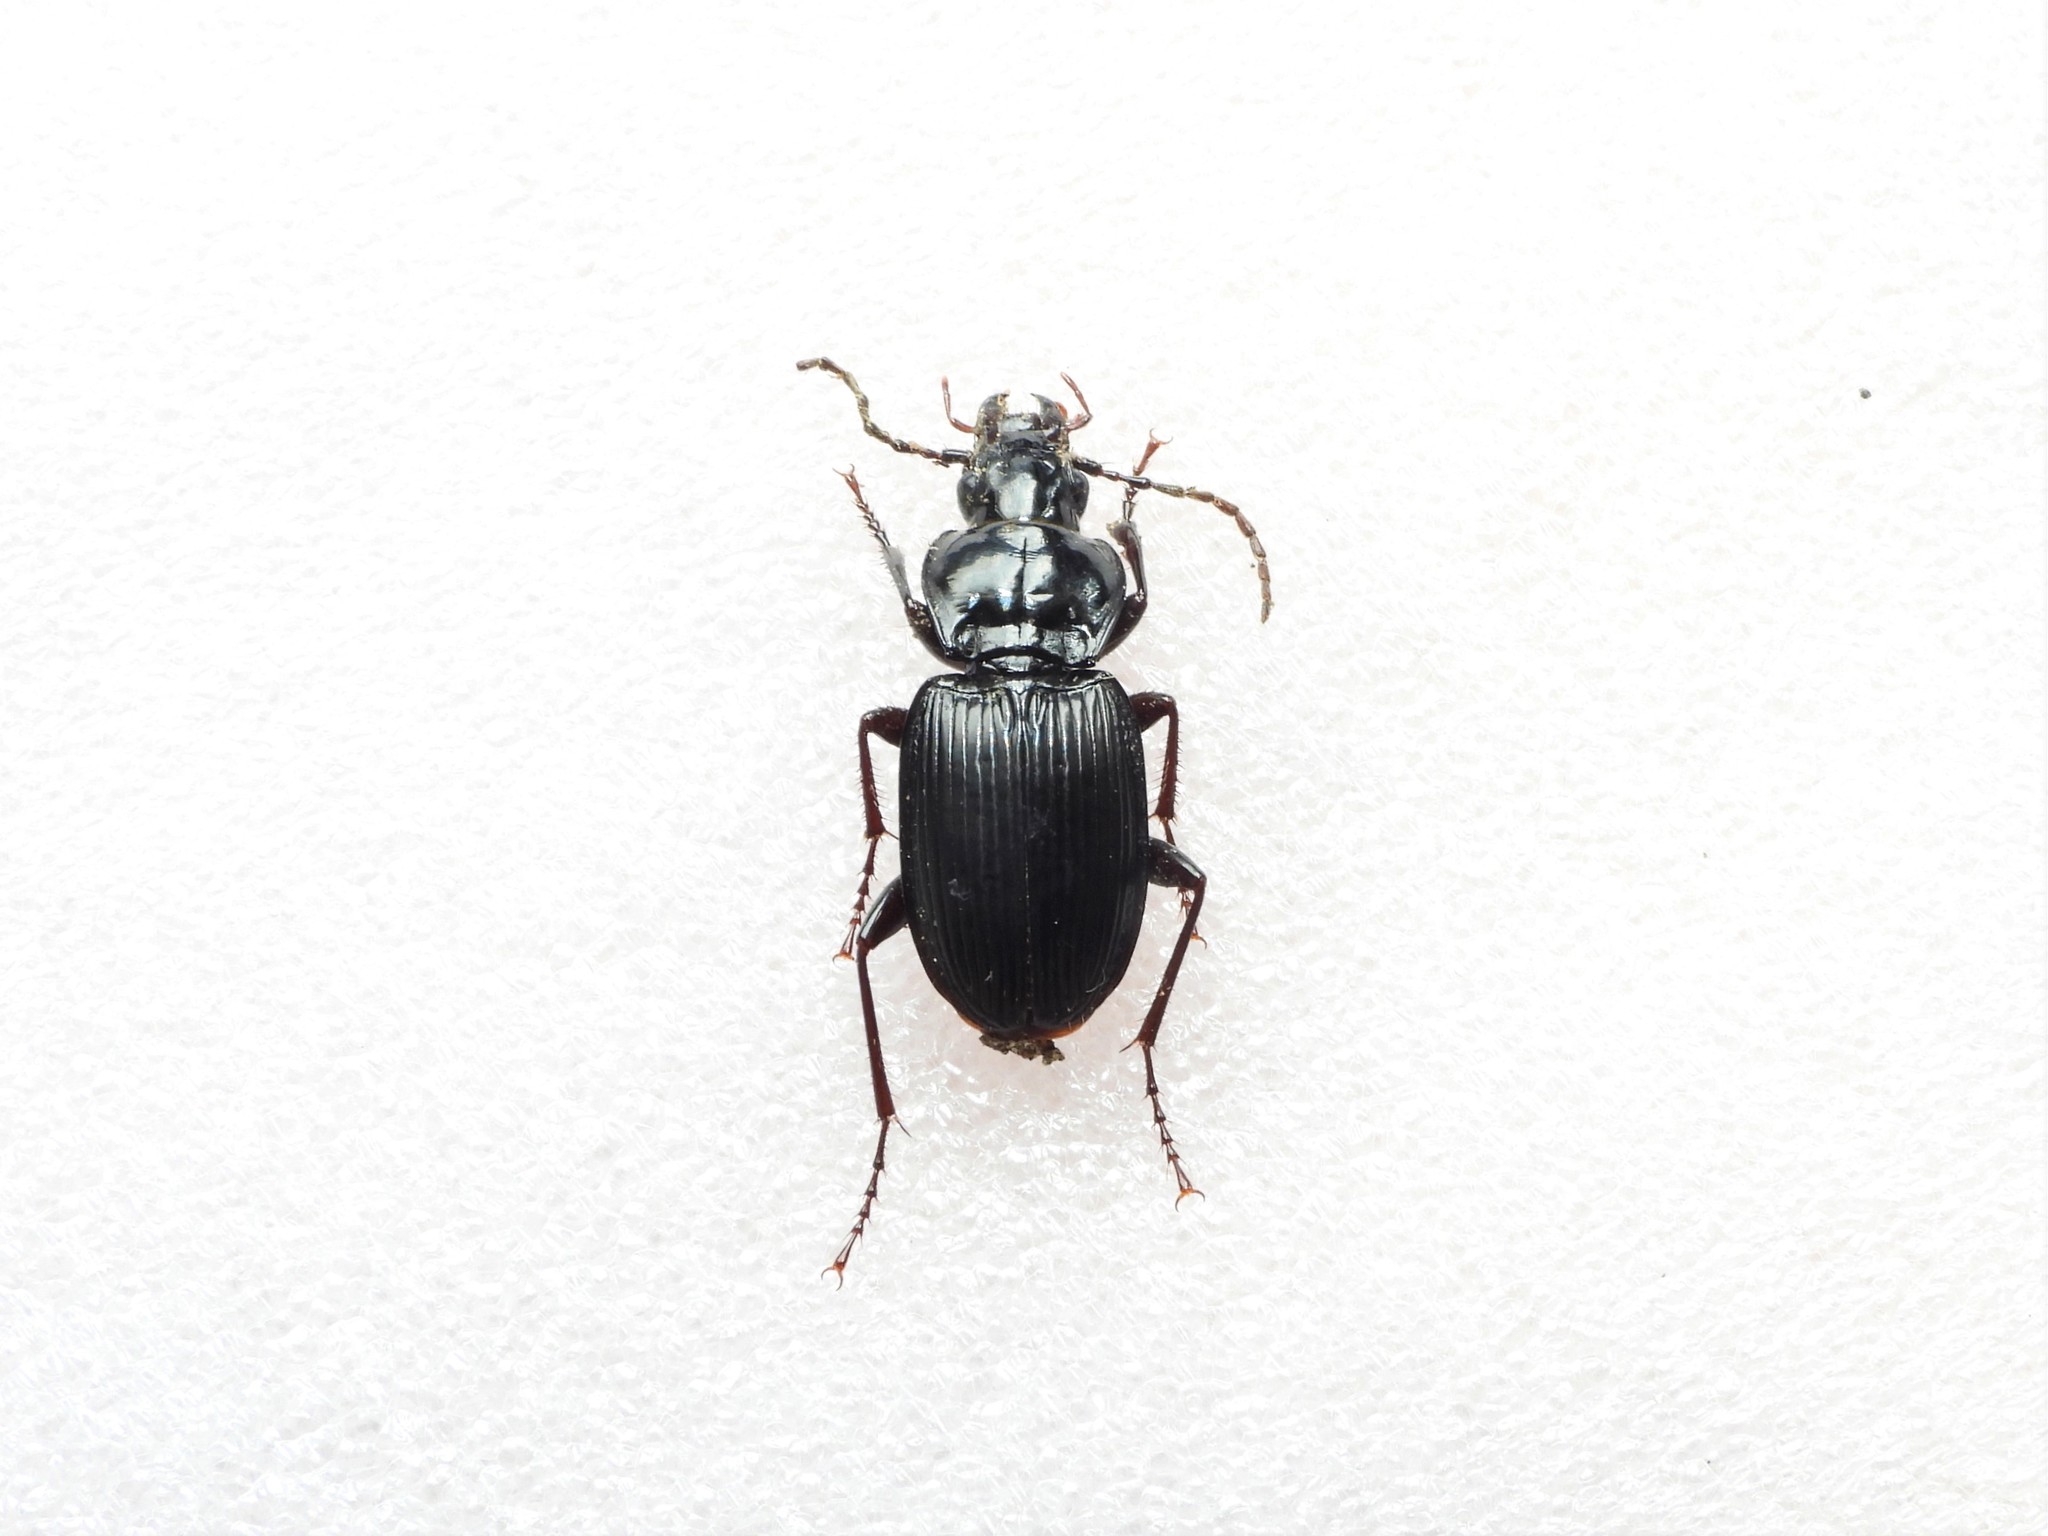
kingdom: Animalia
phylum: Arthropoda
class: Insecta
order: Coleoptera
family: Carabidae
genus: Pterostichus
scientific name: Pterostichus pedemontanus
